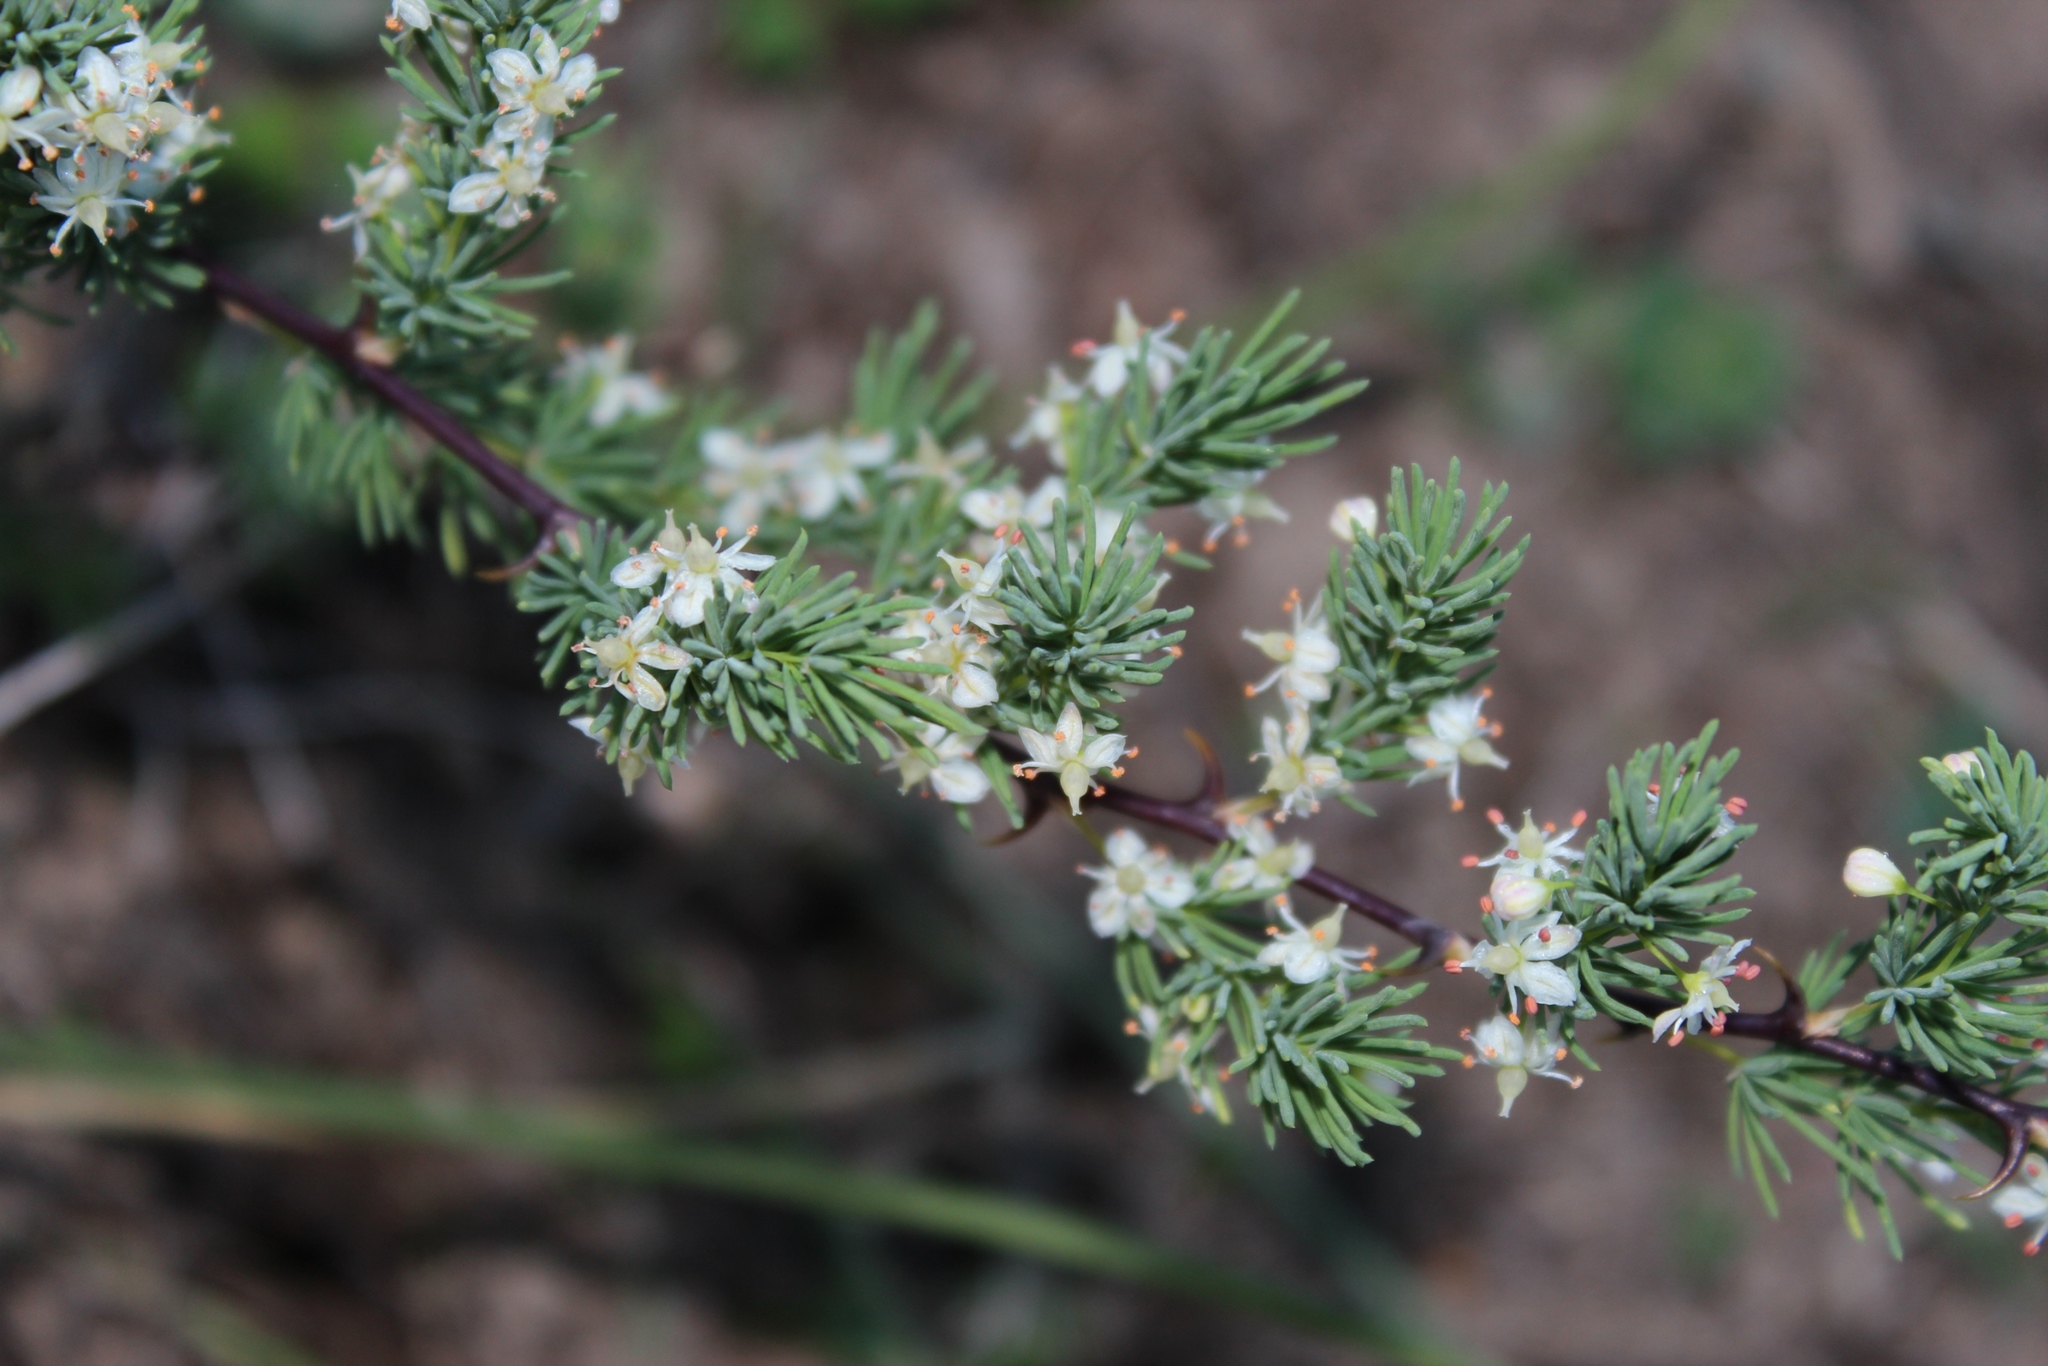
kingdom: Plantae
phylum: Tracheophyta
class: Liliopsida
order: Asparagales
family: Asparagaceae
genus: Asparagus
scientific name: Asparagus rubicundus
